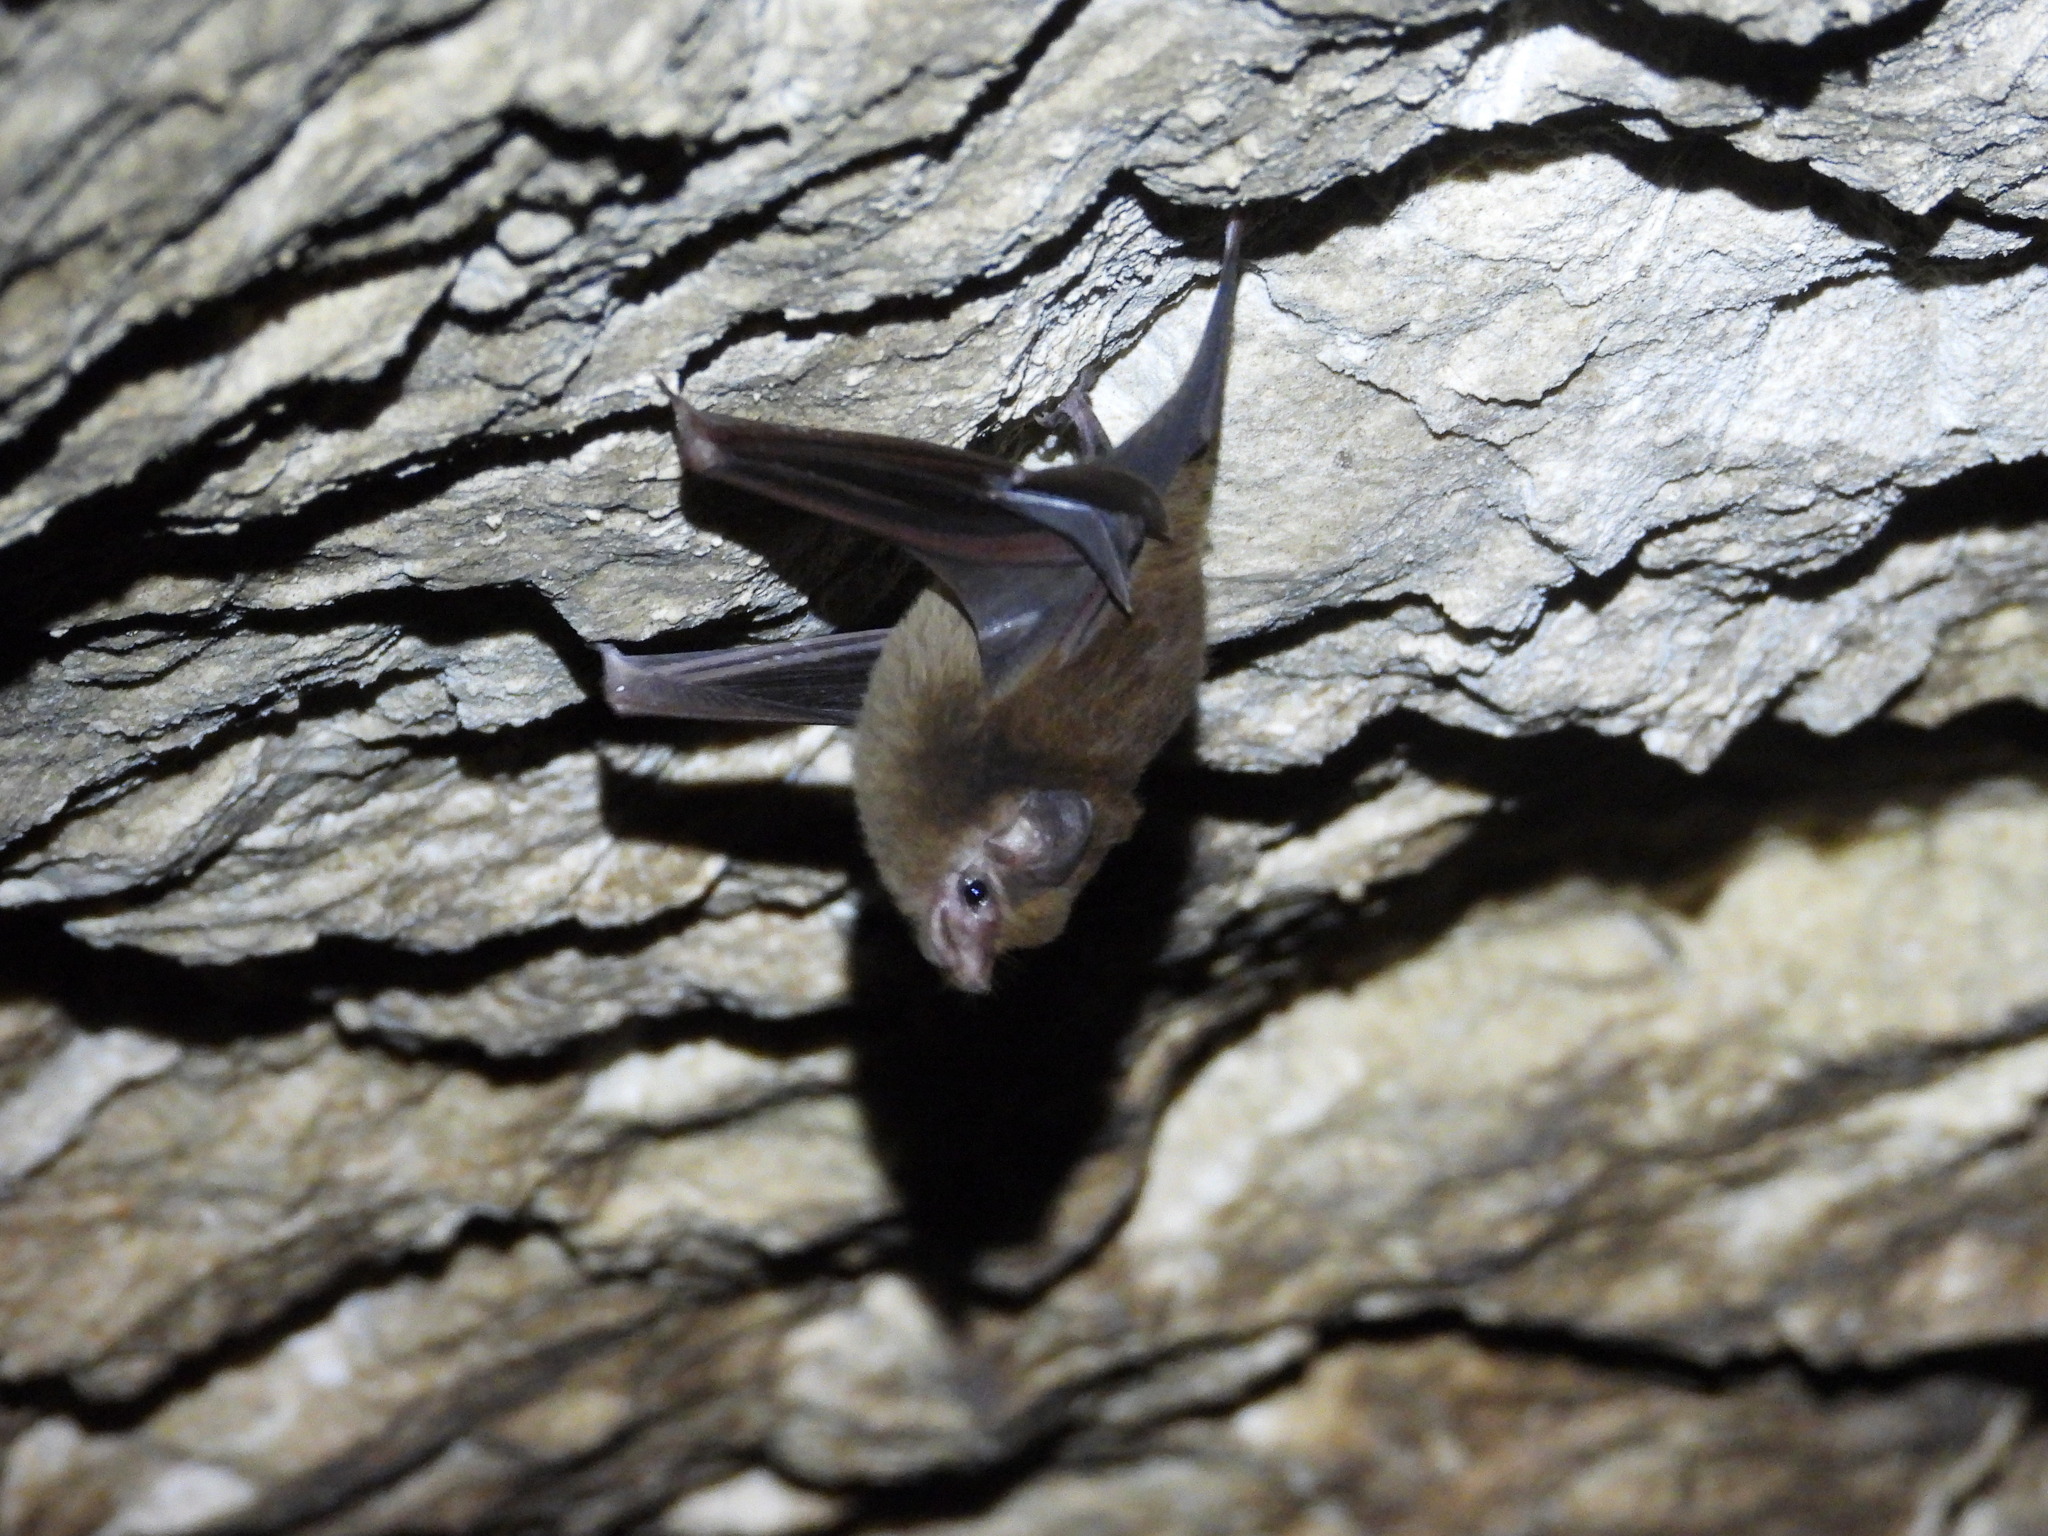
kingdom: Animalia
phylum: Chordata
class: Mammalia
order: Chiroptera
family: Emballonuridae
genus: Peropteryx
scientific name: Peropteryx macrotis
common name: Lesser dog-like bat
